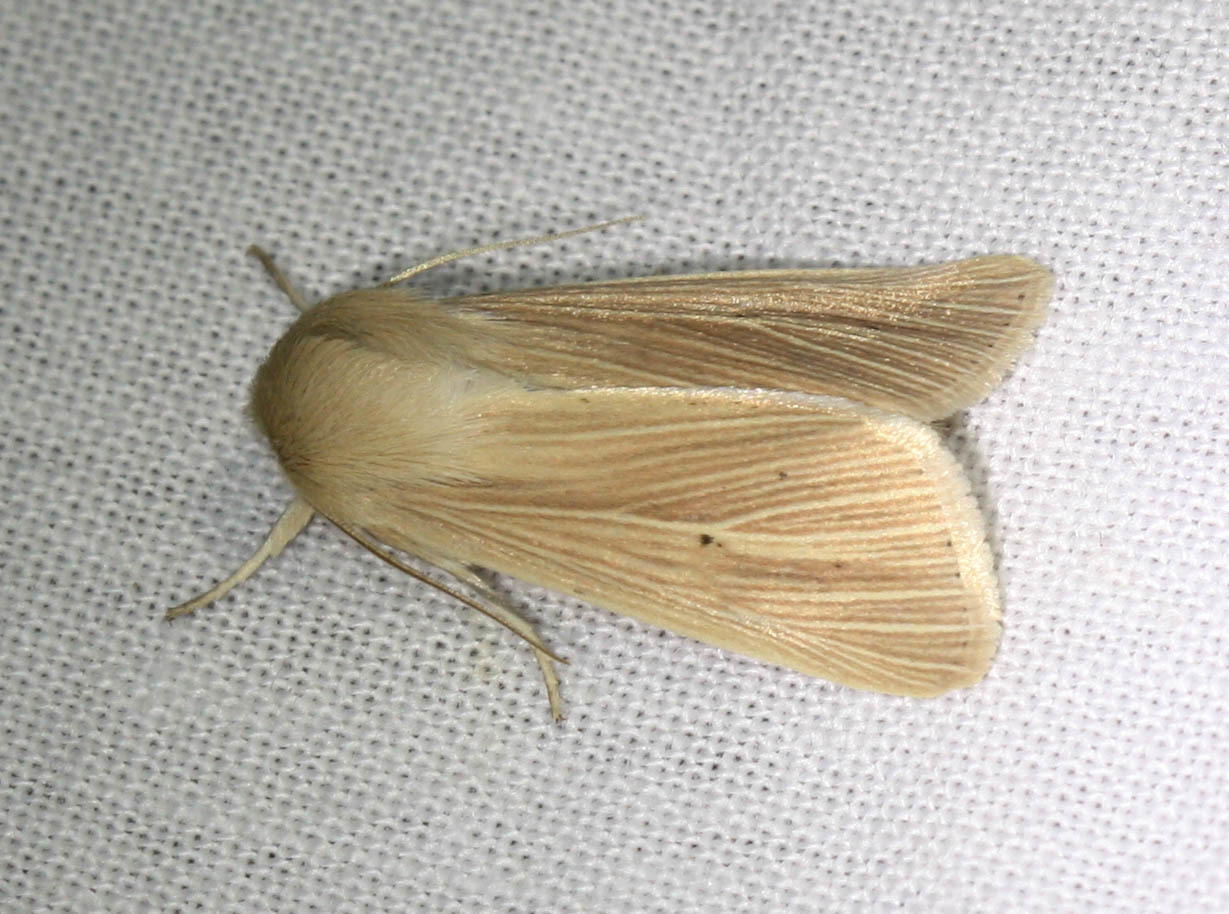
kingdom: Animalia
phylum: Arthropoda
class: Insecta
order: Lepidoptera
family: Noctuidae
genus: Mythimna
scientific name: Mythimna impura
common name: Smoky wainscot
